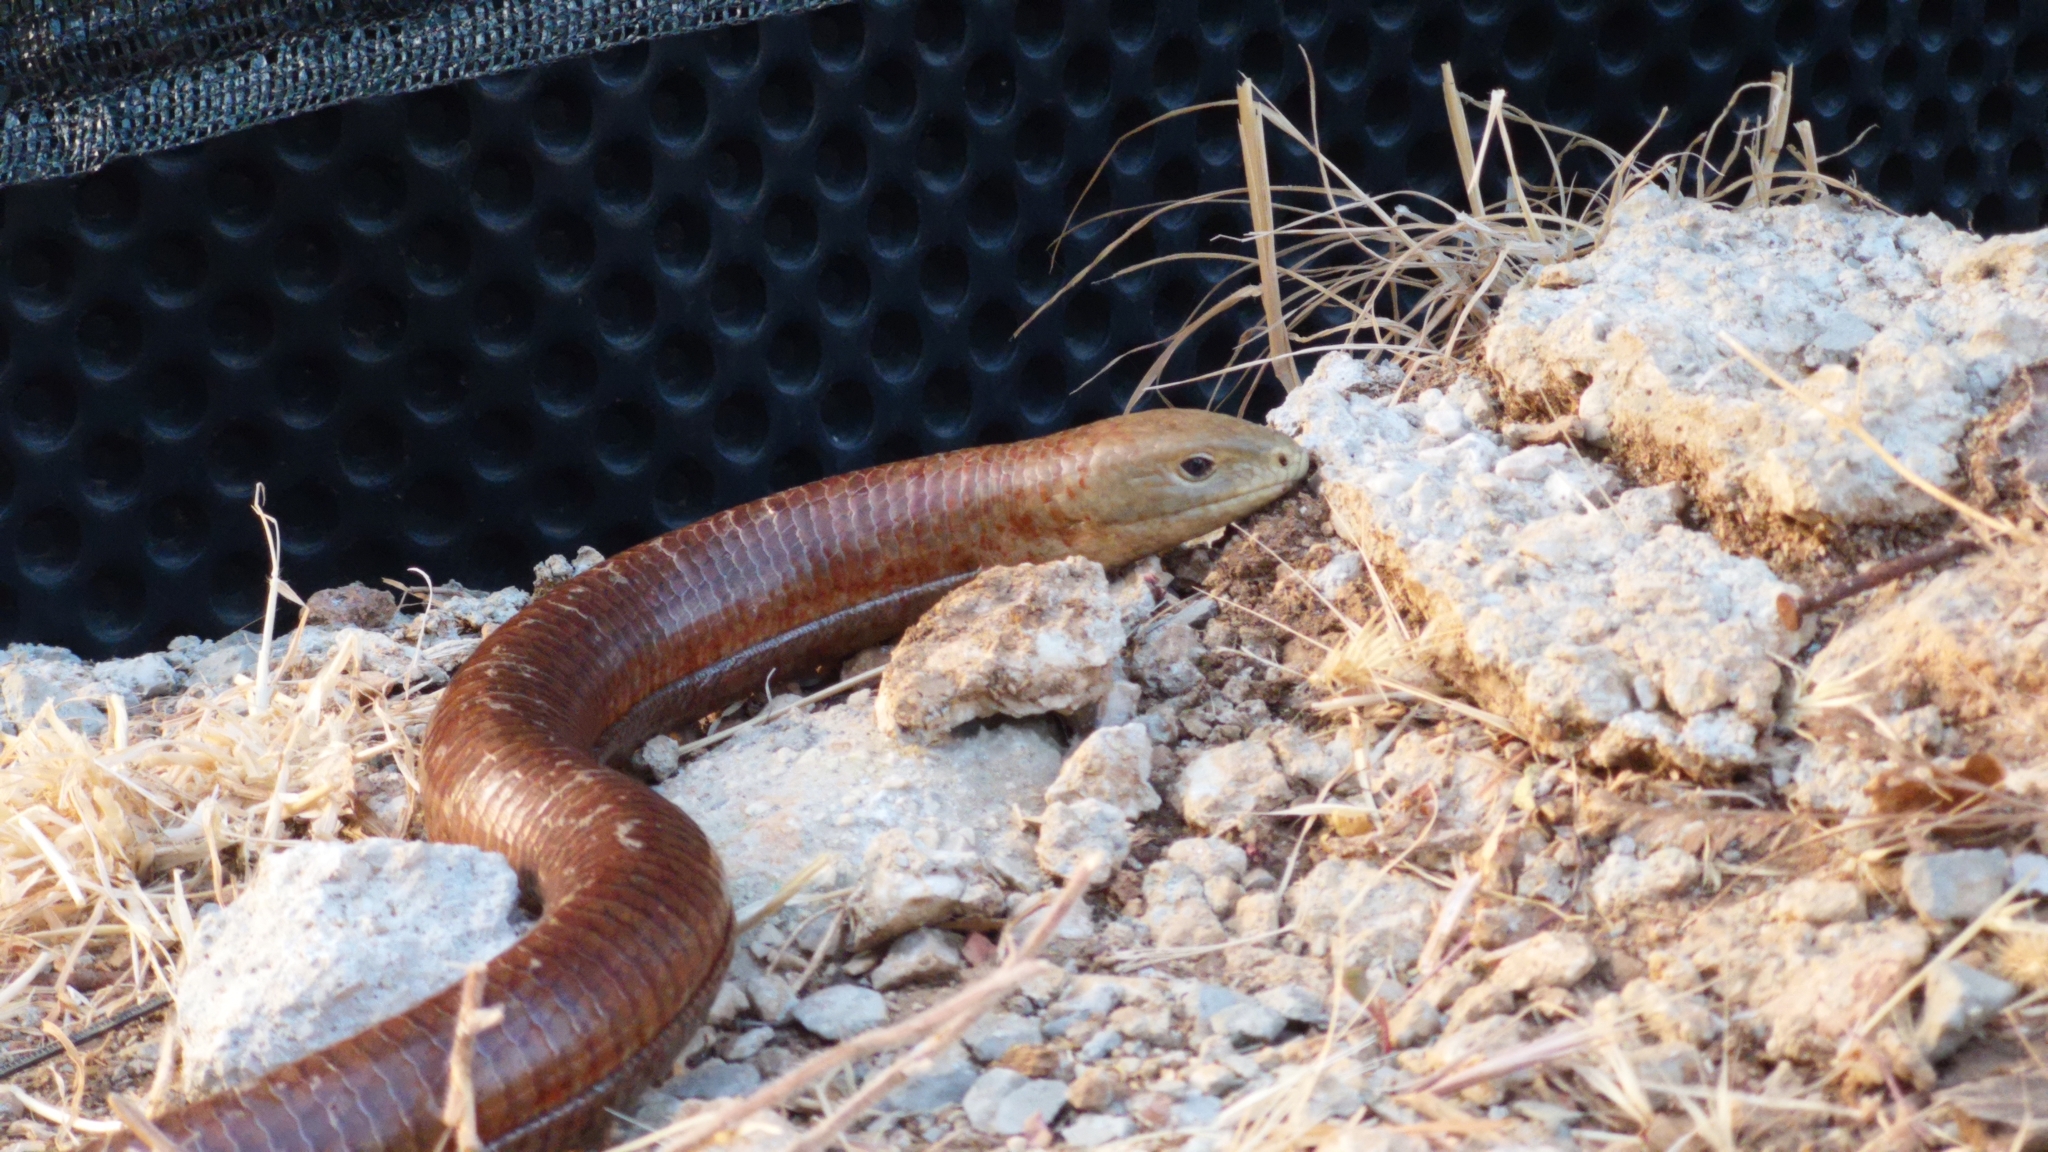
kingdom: Animalia
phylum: Chordata
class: Squamata
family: Anguidae
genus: Pseudopus
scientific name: Pseudopus apodus
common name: European glass lizard
